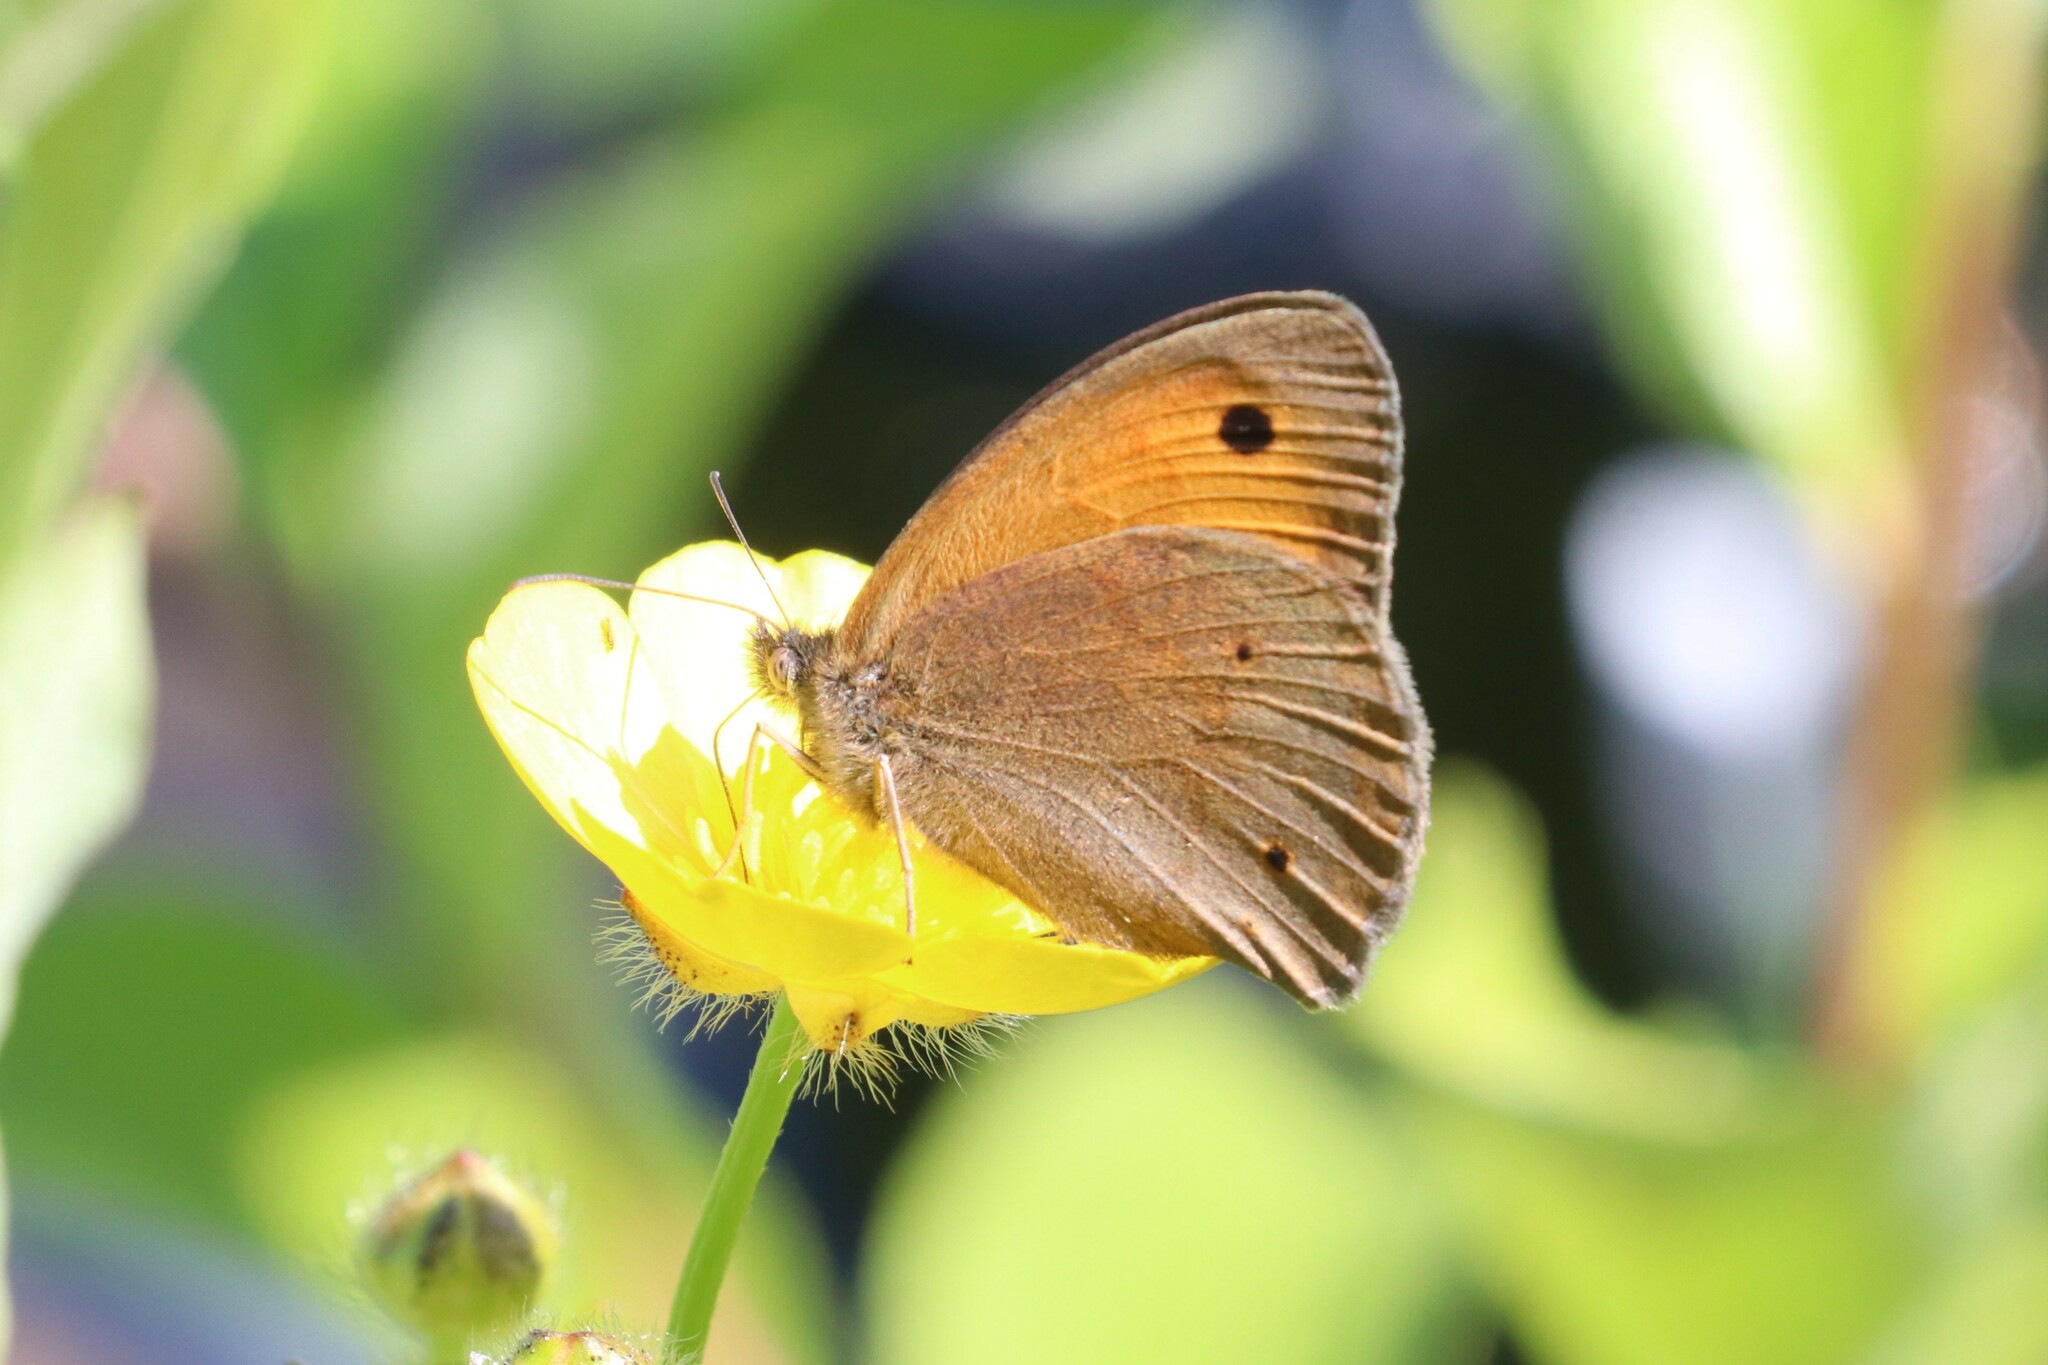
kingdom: Animalia
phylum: Arthropoda
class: Insecta
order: Lepidoptera
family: Nymphalidae
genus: Maniola
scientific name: Maniola jurtina
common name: Meadow brown
